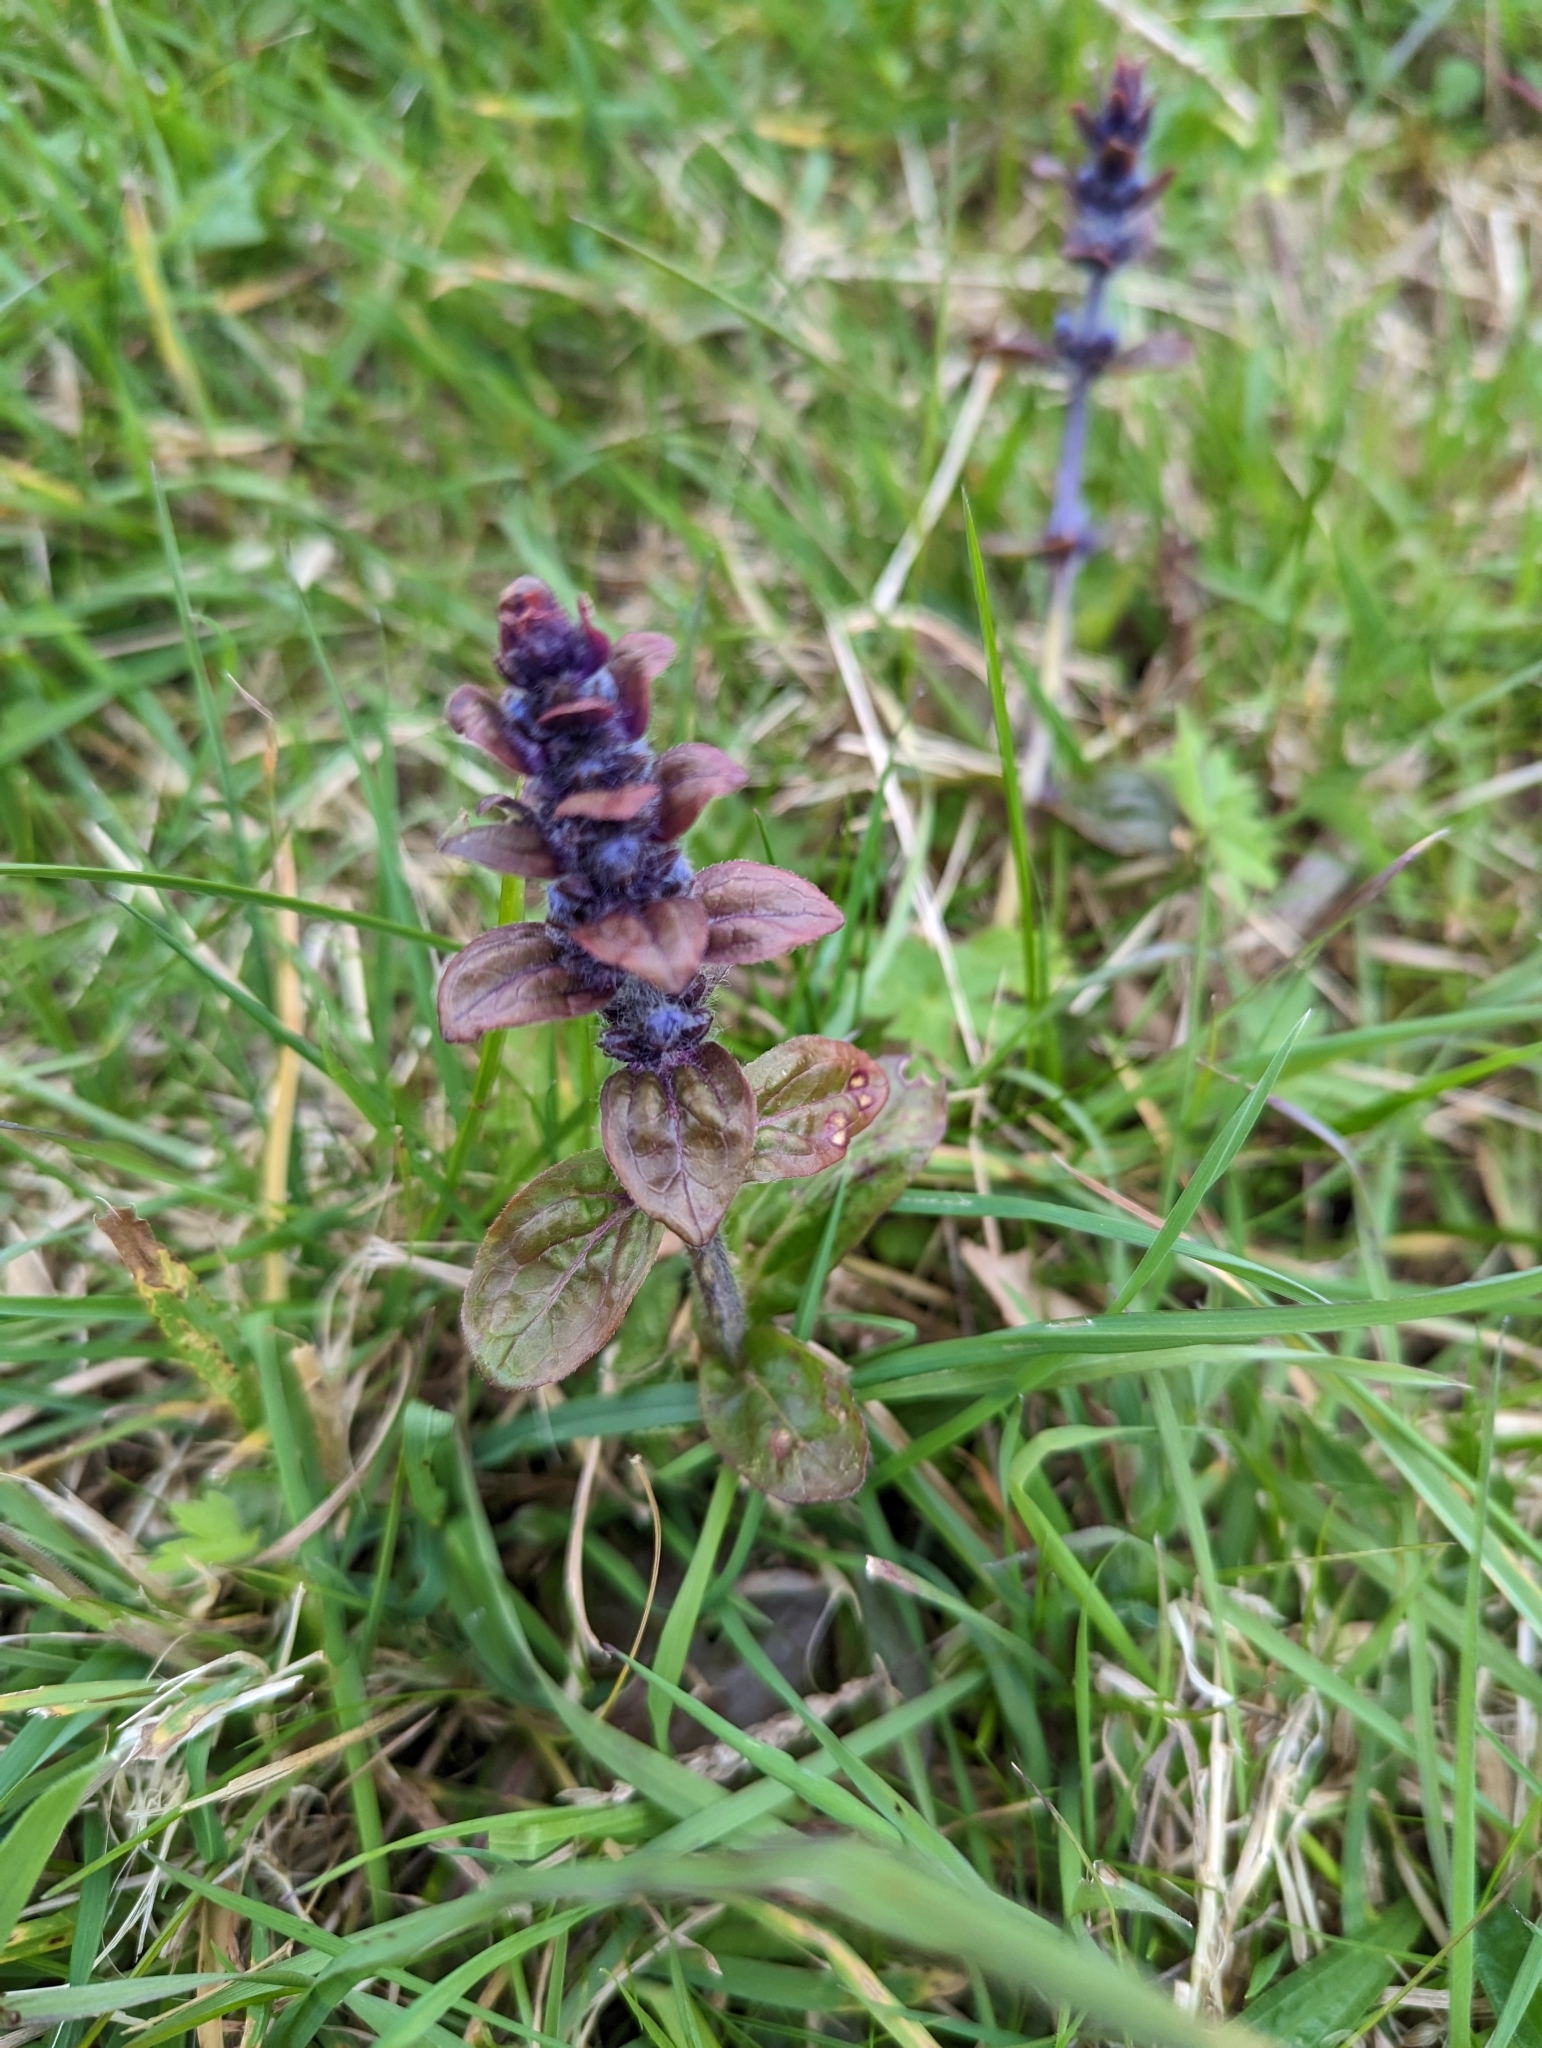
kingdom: Plantae
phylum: Tracheophyta
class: Magnoliopsida
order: Lamiales
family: Lamiaceae
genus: Ajuga
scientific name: Ajuga reptans
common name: Bugle
